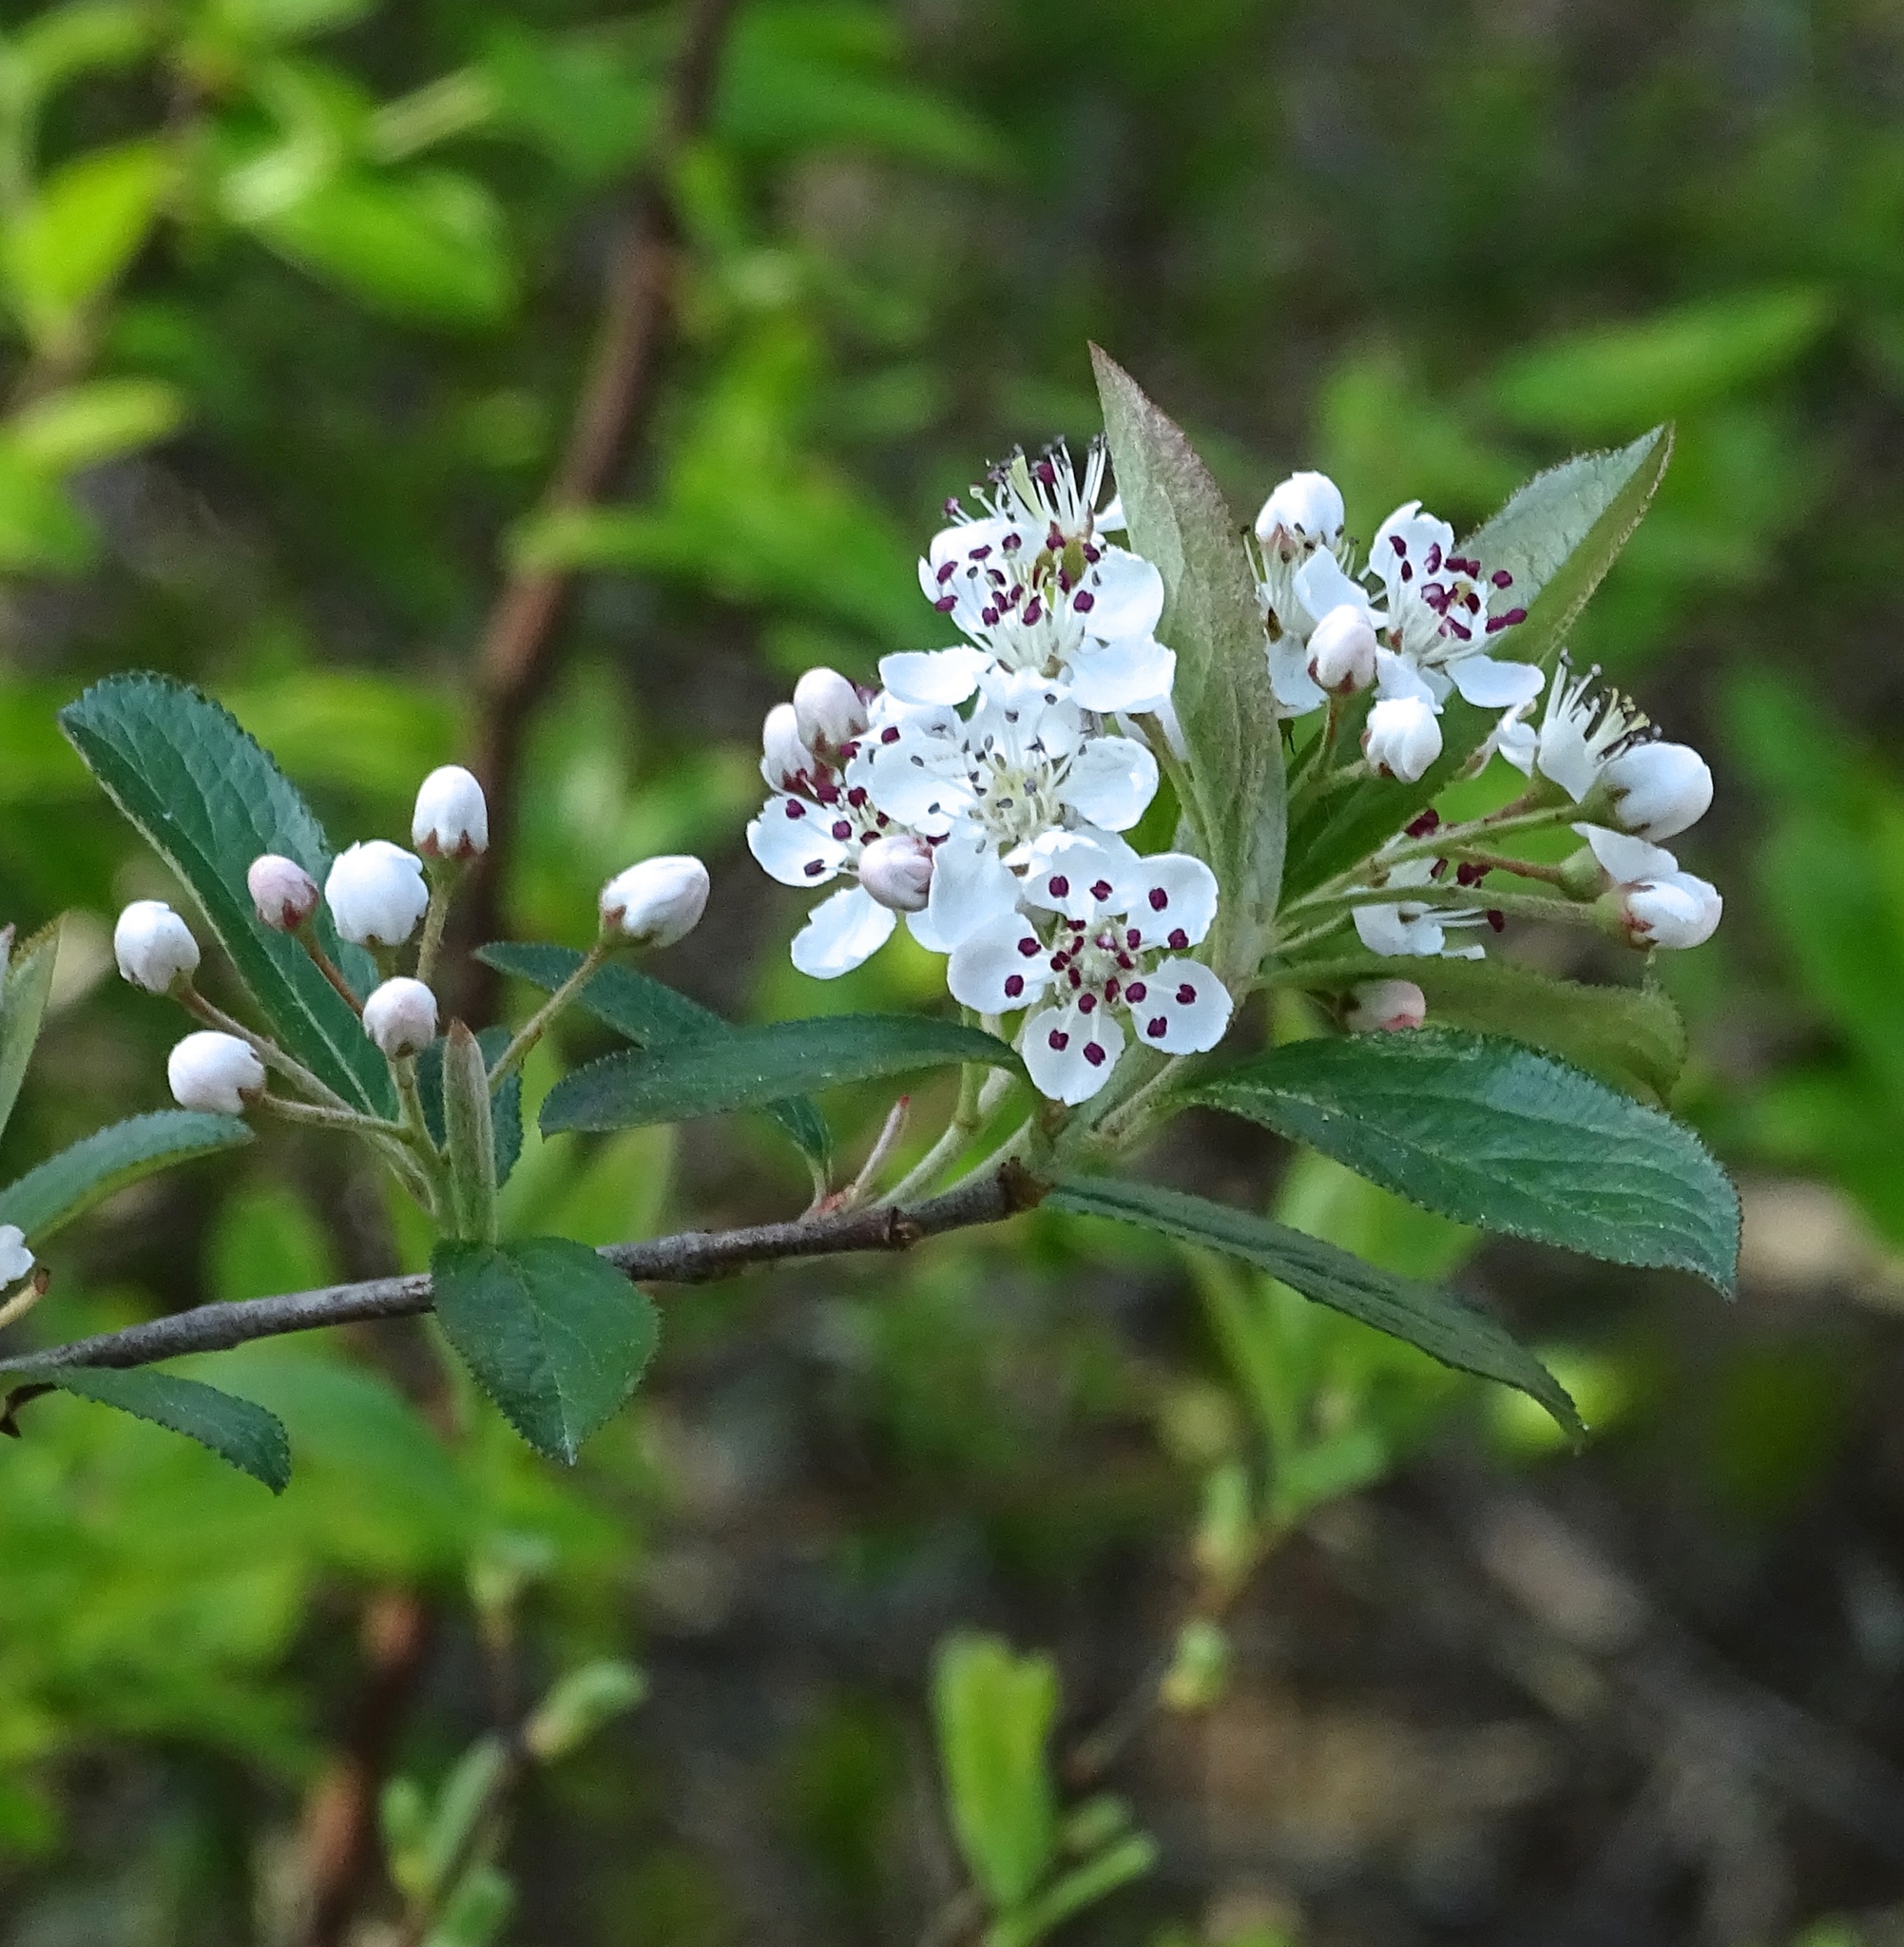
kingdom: Plantae
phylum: Tracheophyta
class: Magnoliopsida
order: Rosales
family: Rosaceae
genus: Aronia
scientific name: Aronia arbutifolia
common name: Red chokeberry
